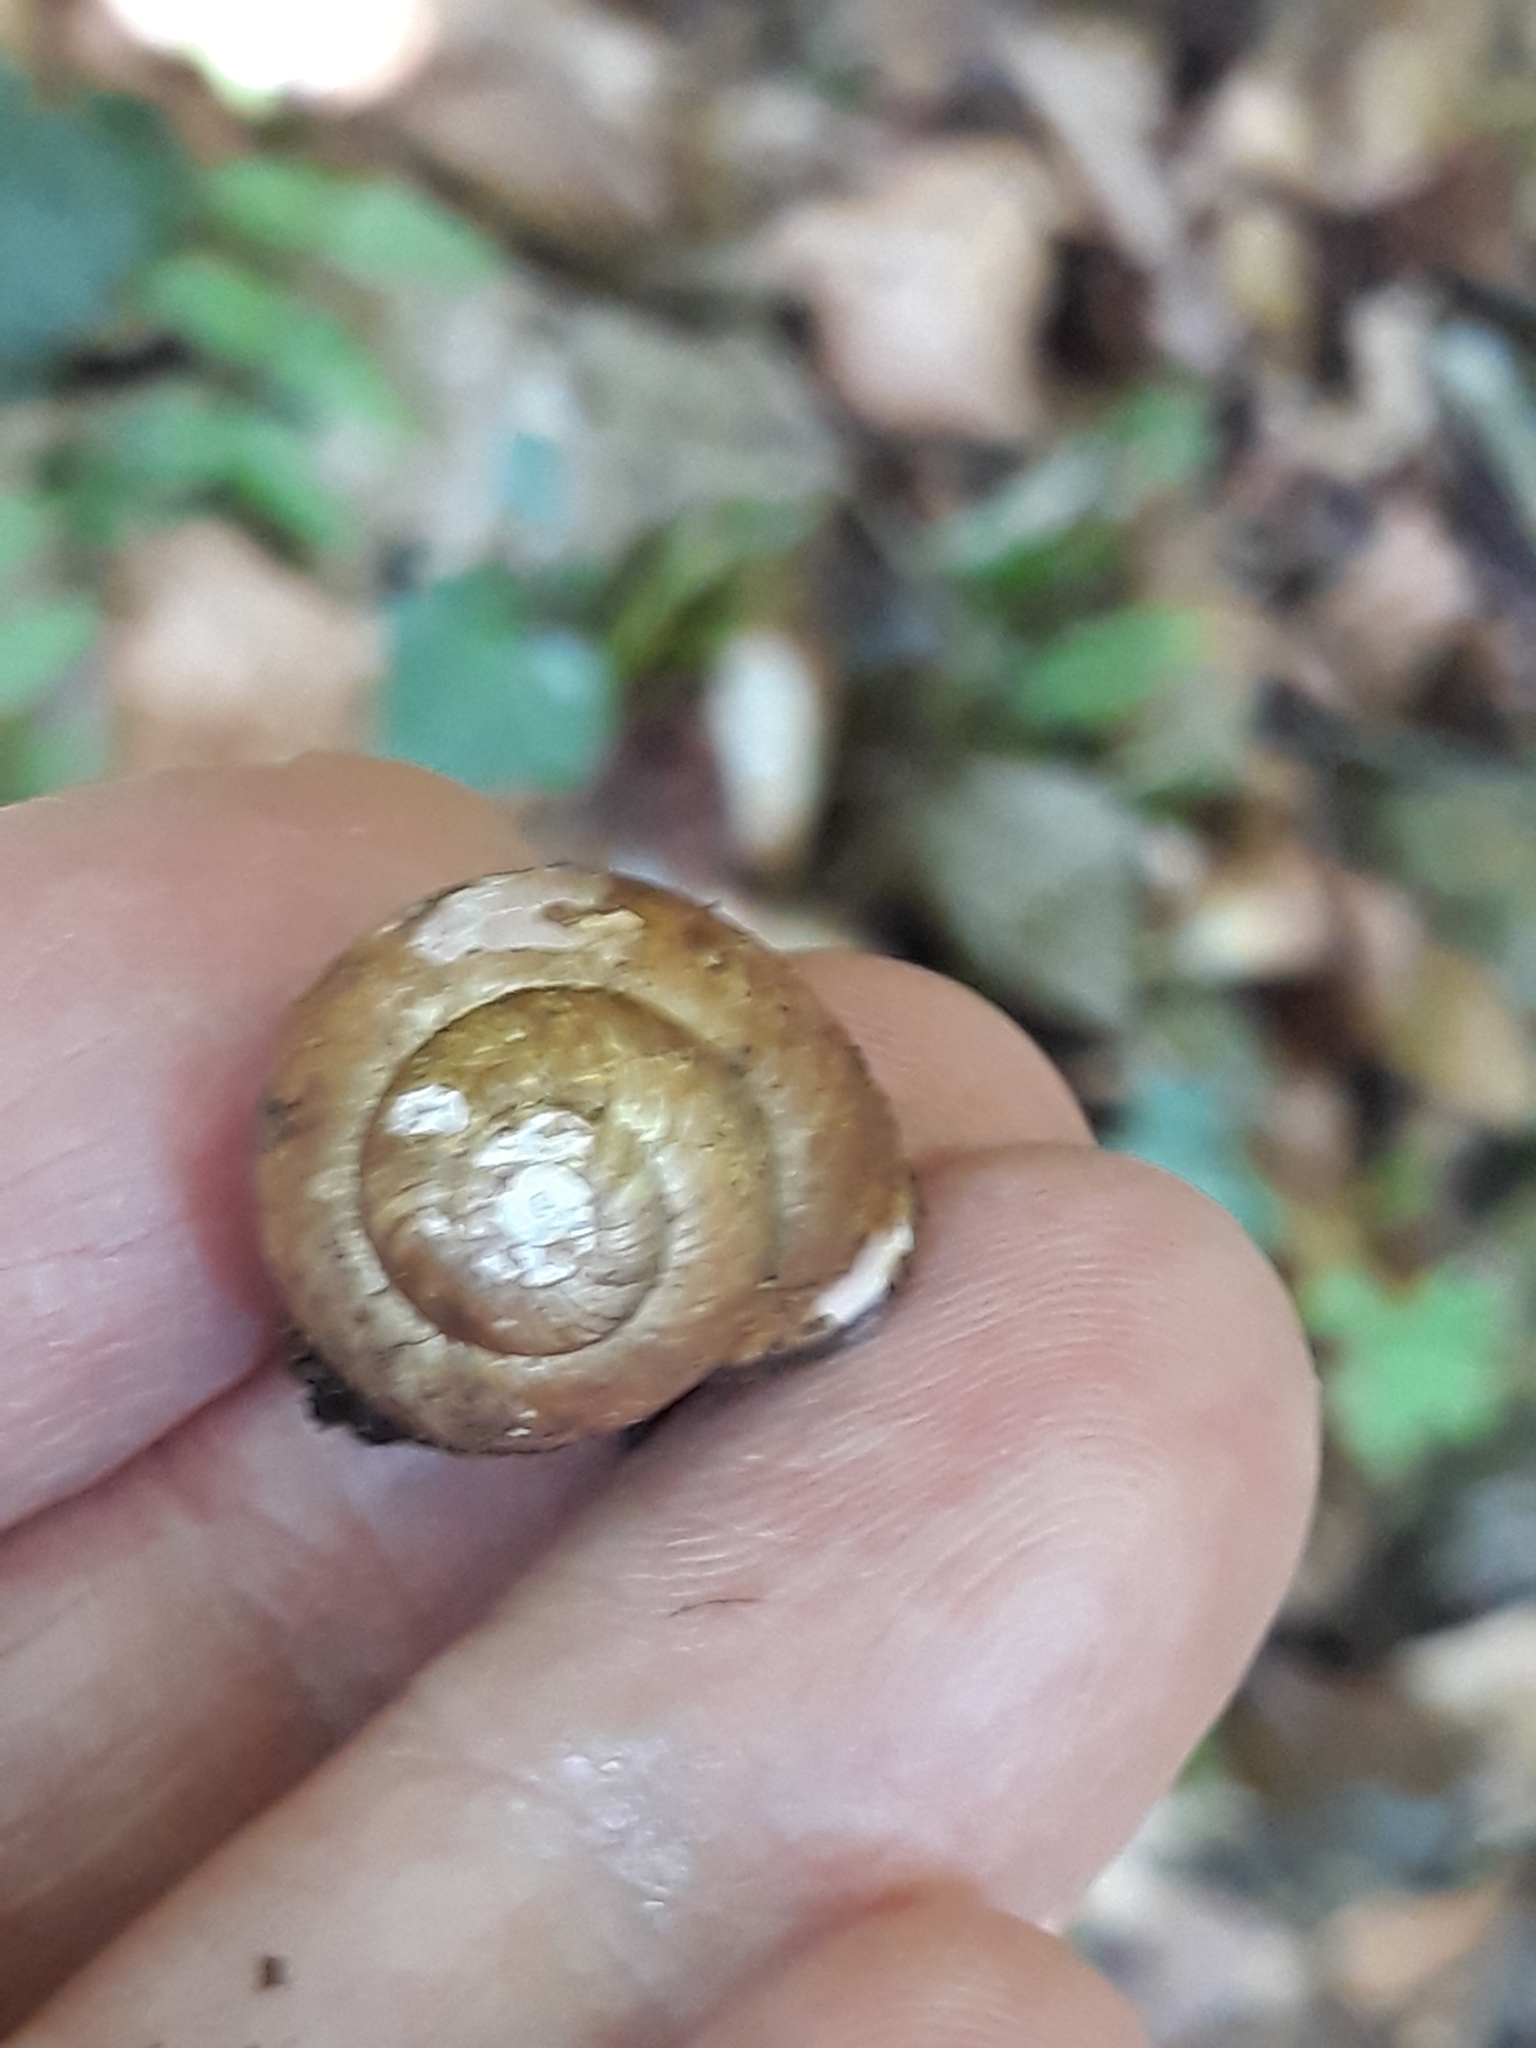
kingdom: Animalia
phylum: Mollusca
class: Gastropoda
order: Stylommatophora
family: Helicidae
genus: Cepaea
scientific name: Cepaea nemoralis
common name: Grovesnail
